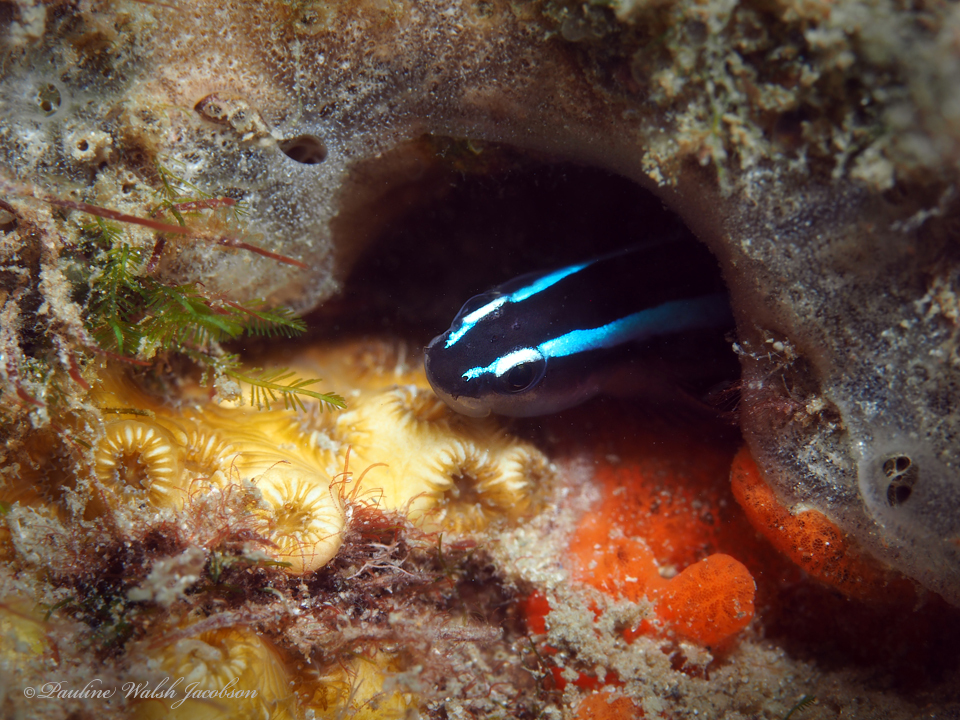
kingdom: Animalia
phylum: Chordata
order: Perciformes
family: Gobiidae
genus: Elacatinus
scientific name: Elacatinus oceanops
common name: Northern neon goby
